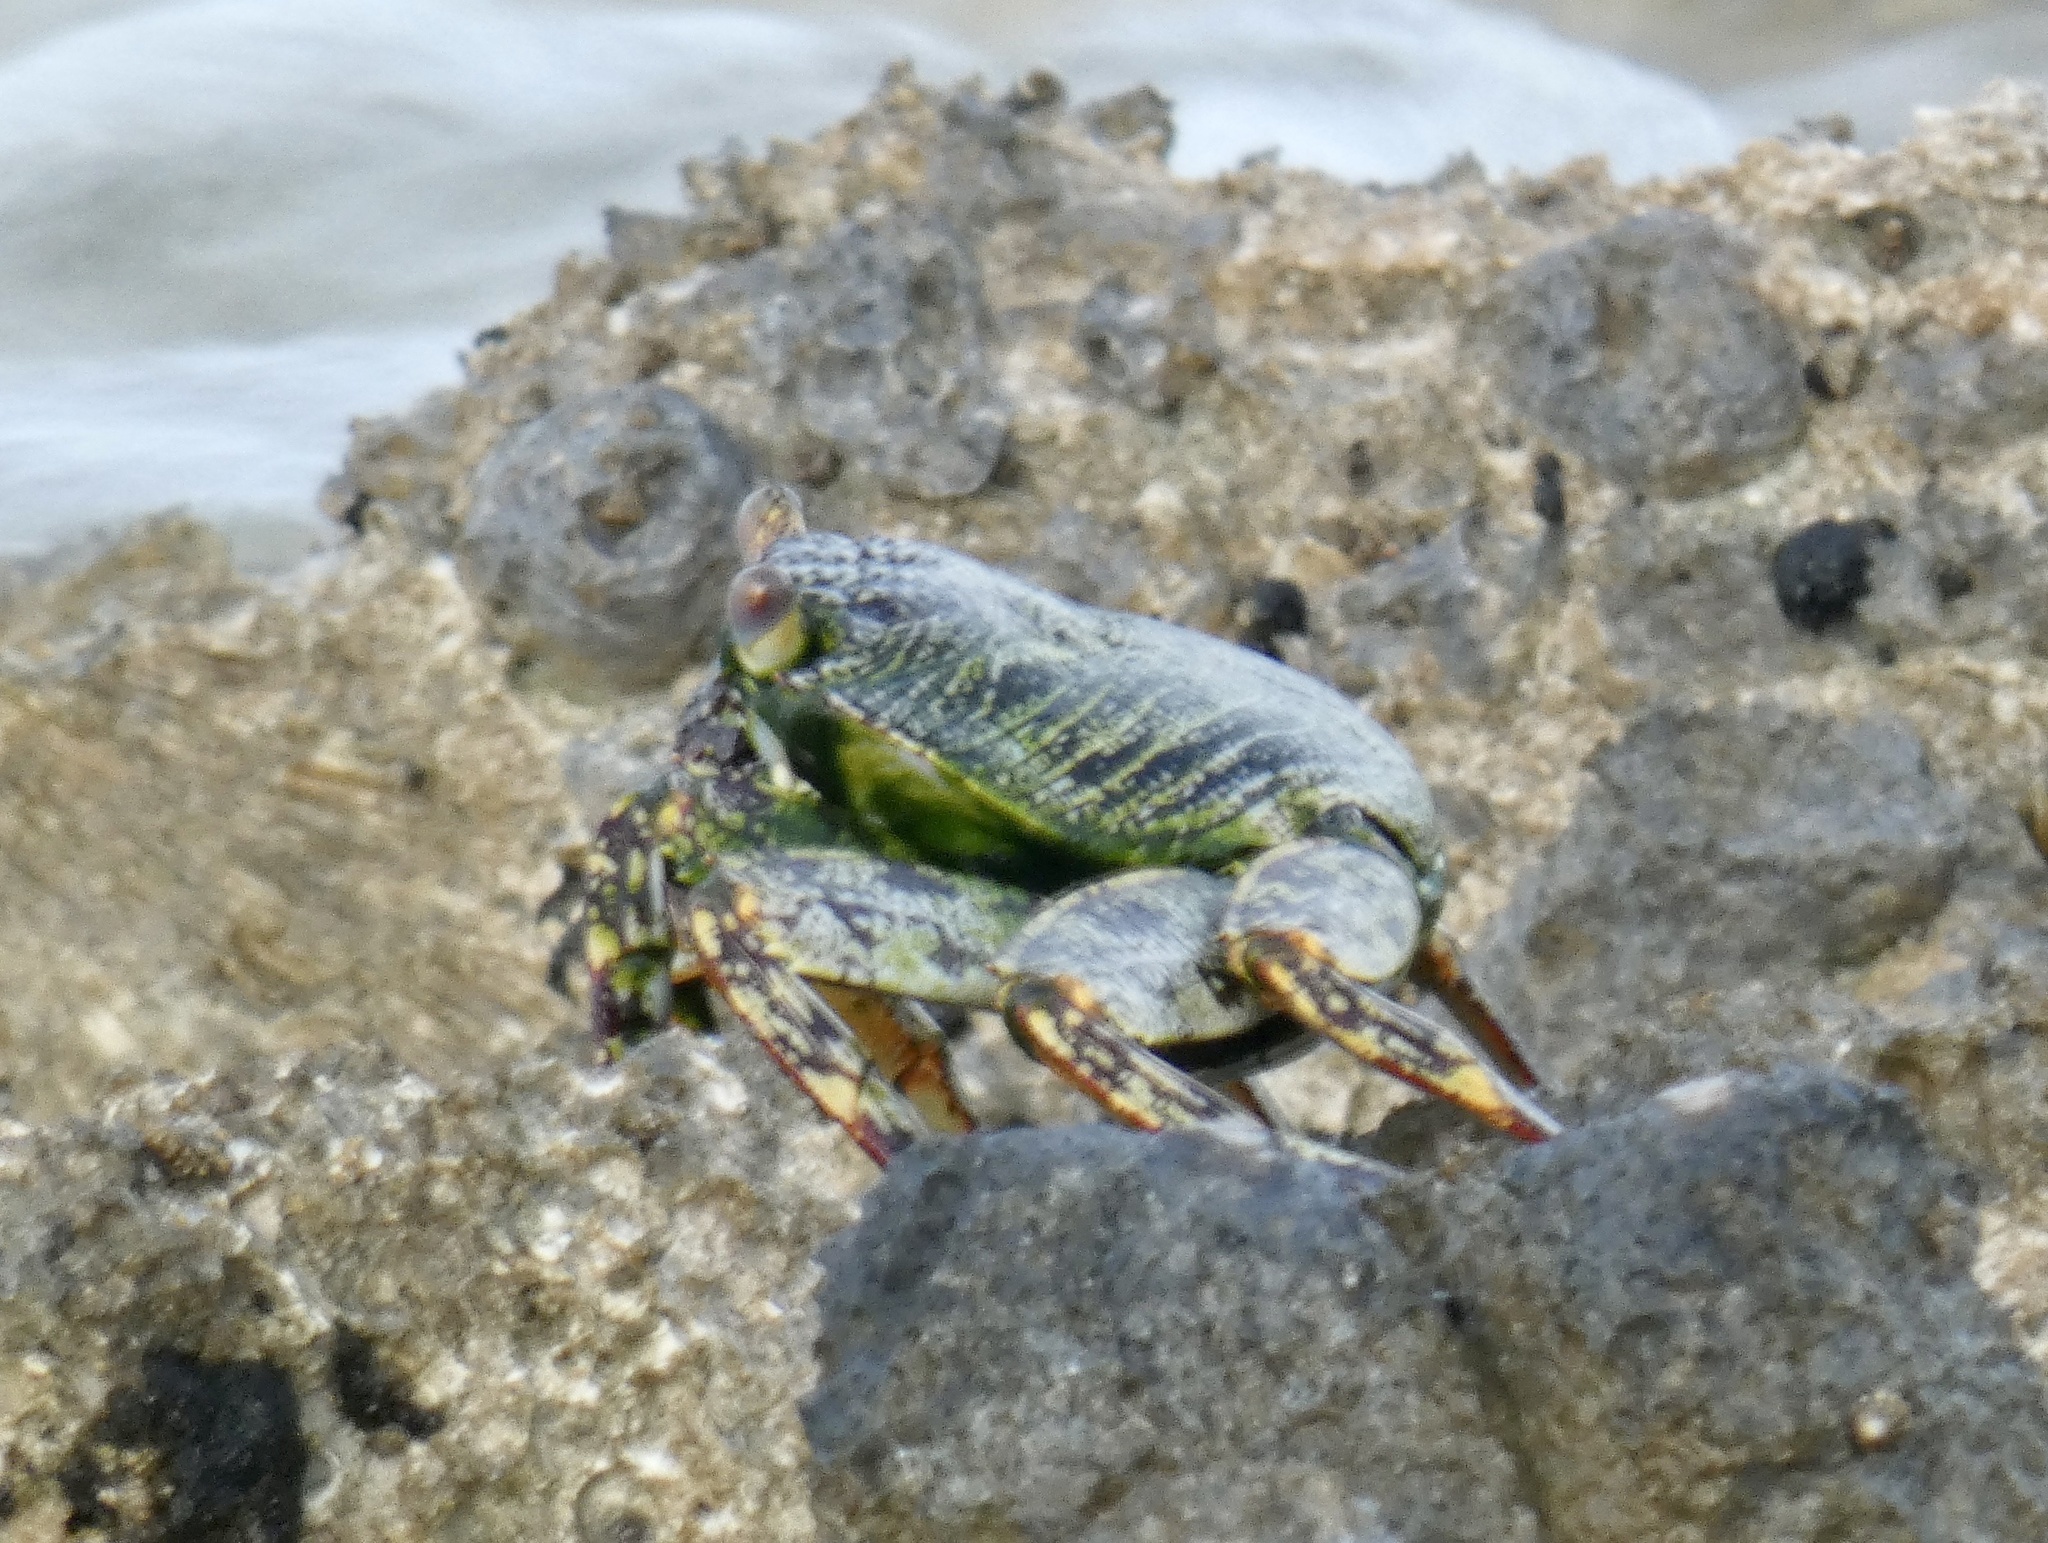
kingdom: Animalia
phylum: Arthropoda
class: Malacostraca
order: Decapoda
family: Grapsidae
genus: Grapsus
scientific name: Grapsus grapsus
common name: Sally lightfoot
